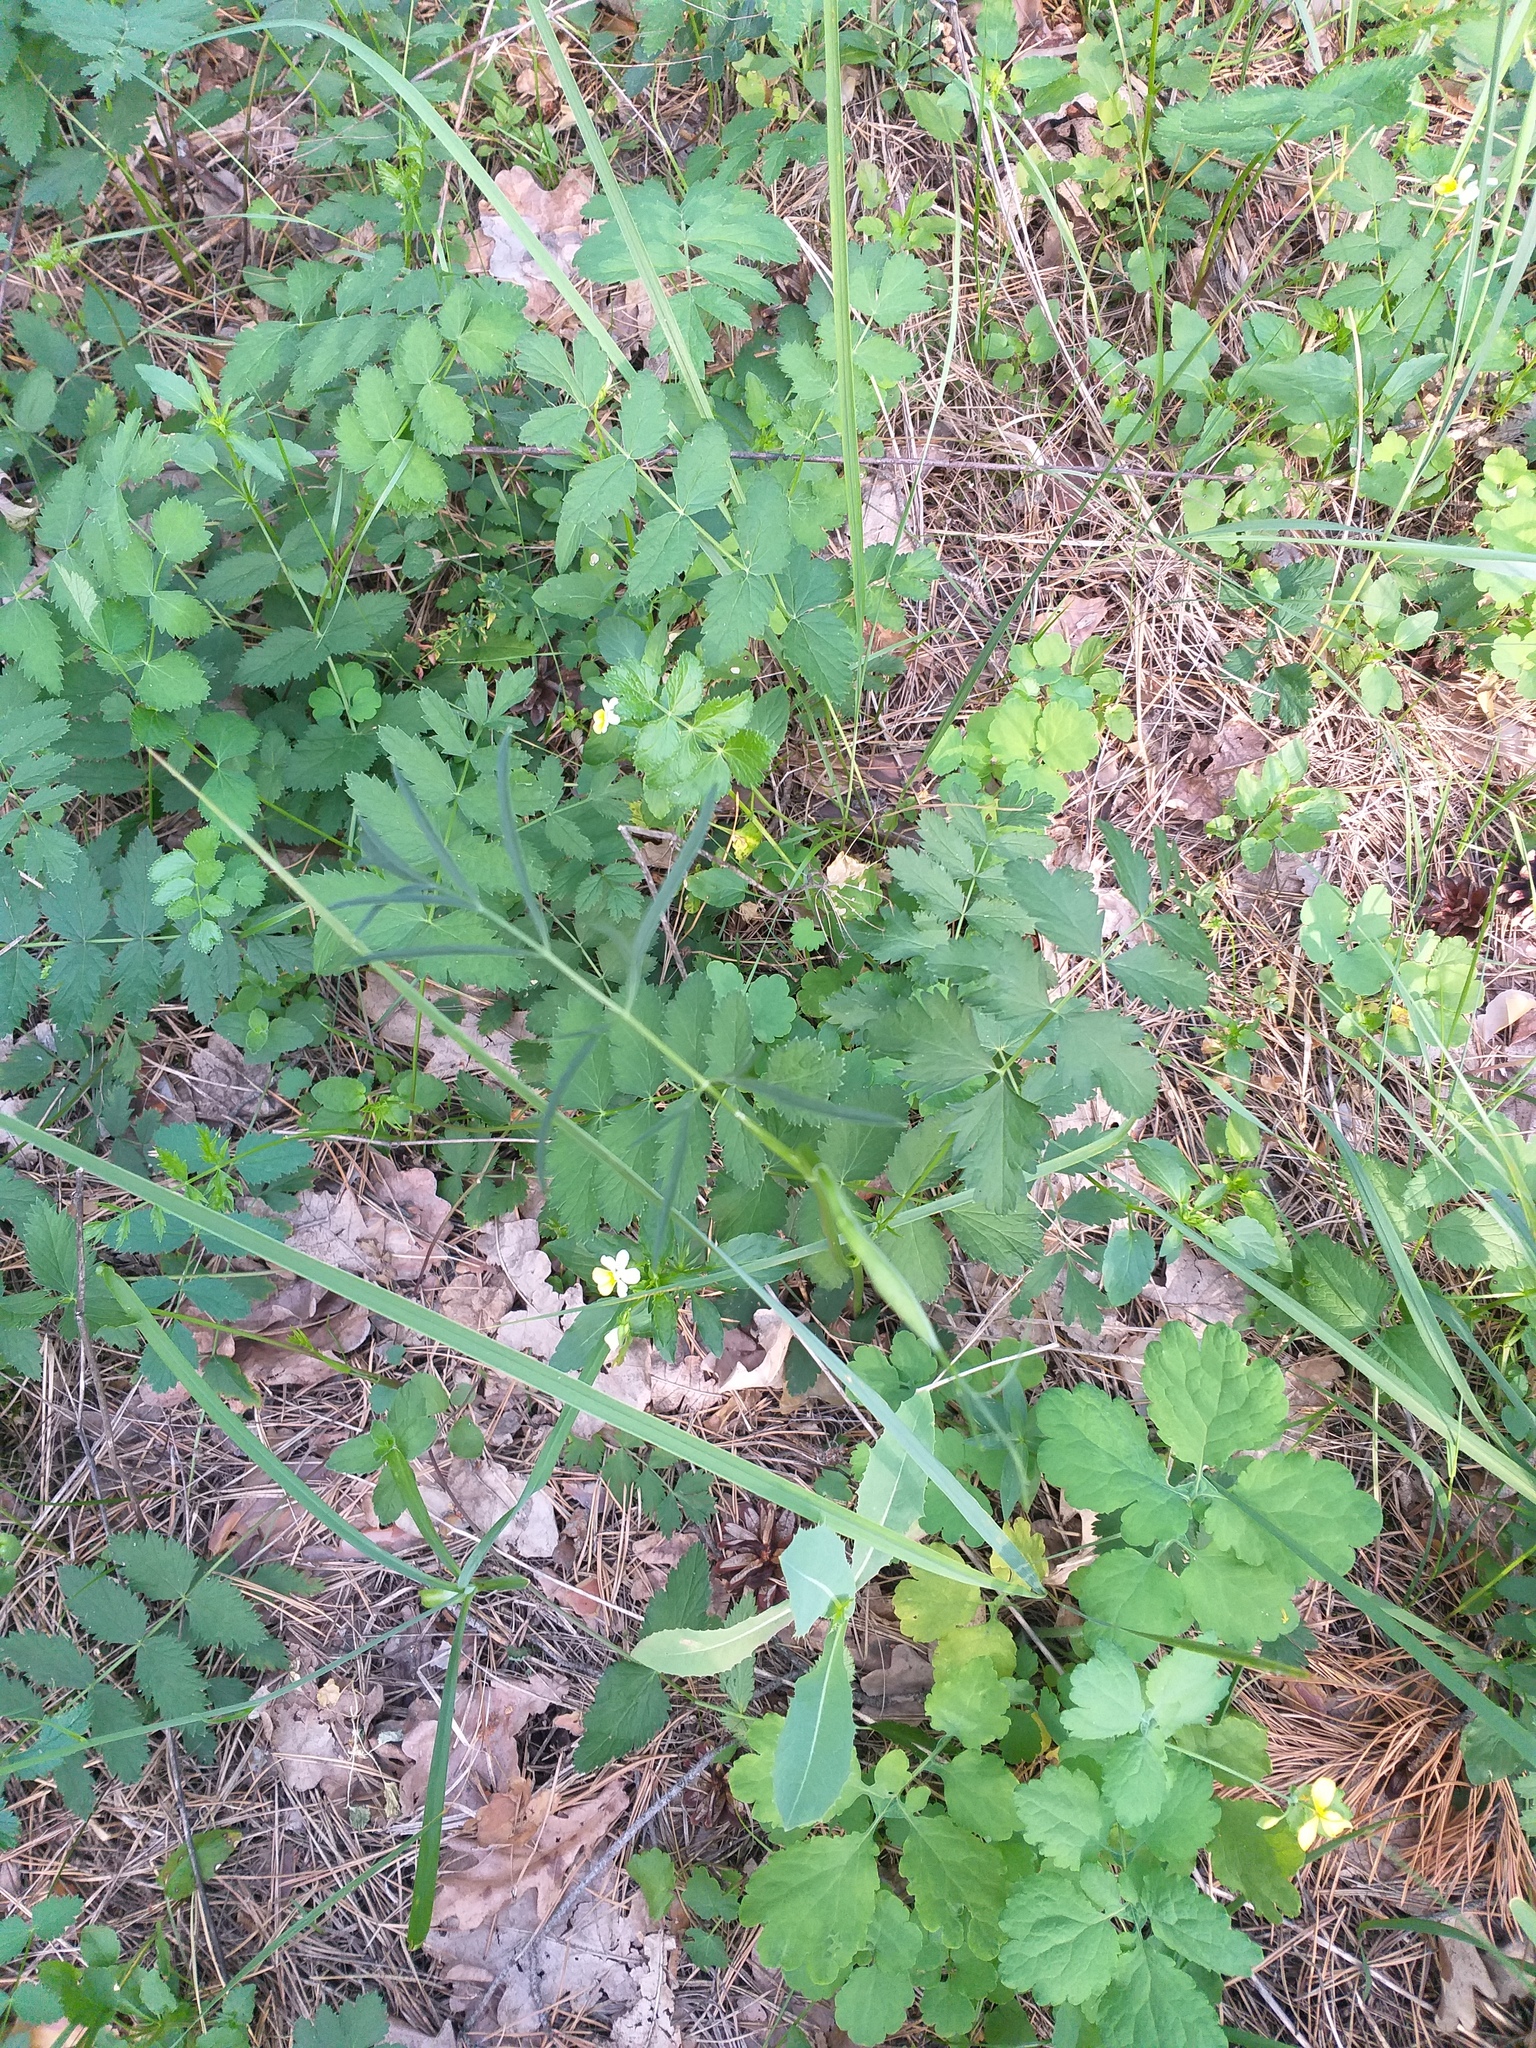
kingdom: Plantae
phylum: Tracheophyta
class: Magnoliopsida
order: Apiales
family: Apiaceae
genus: Pimpinella
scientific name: Pimpinella saxifraga
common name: Burnet-saxifrage
